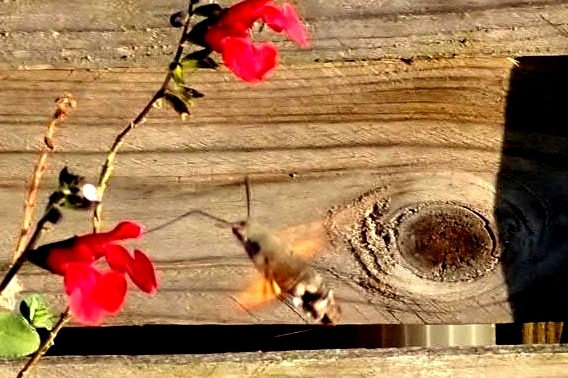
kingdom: Animalia
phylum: Arthropoda
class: Insecta
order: Lepidoptera
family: Sphingidae
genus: Macroglossum
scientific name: Macroglossum stellatarum
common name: Humming-bird hawk-moth
